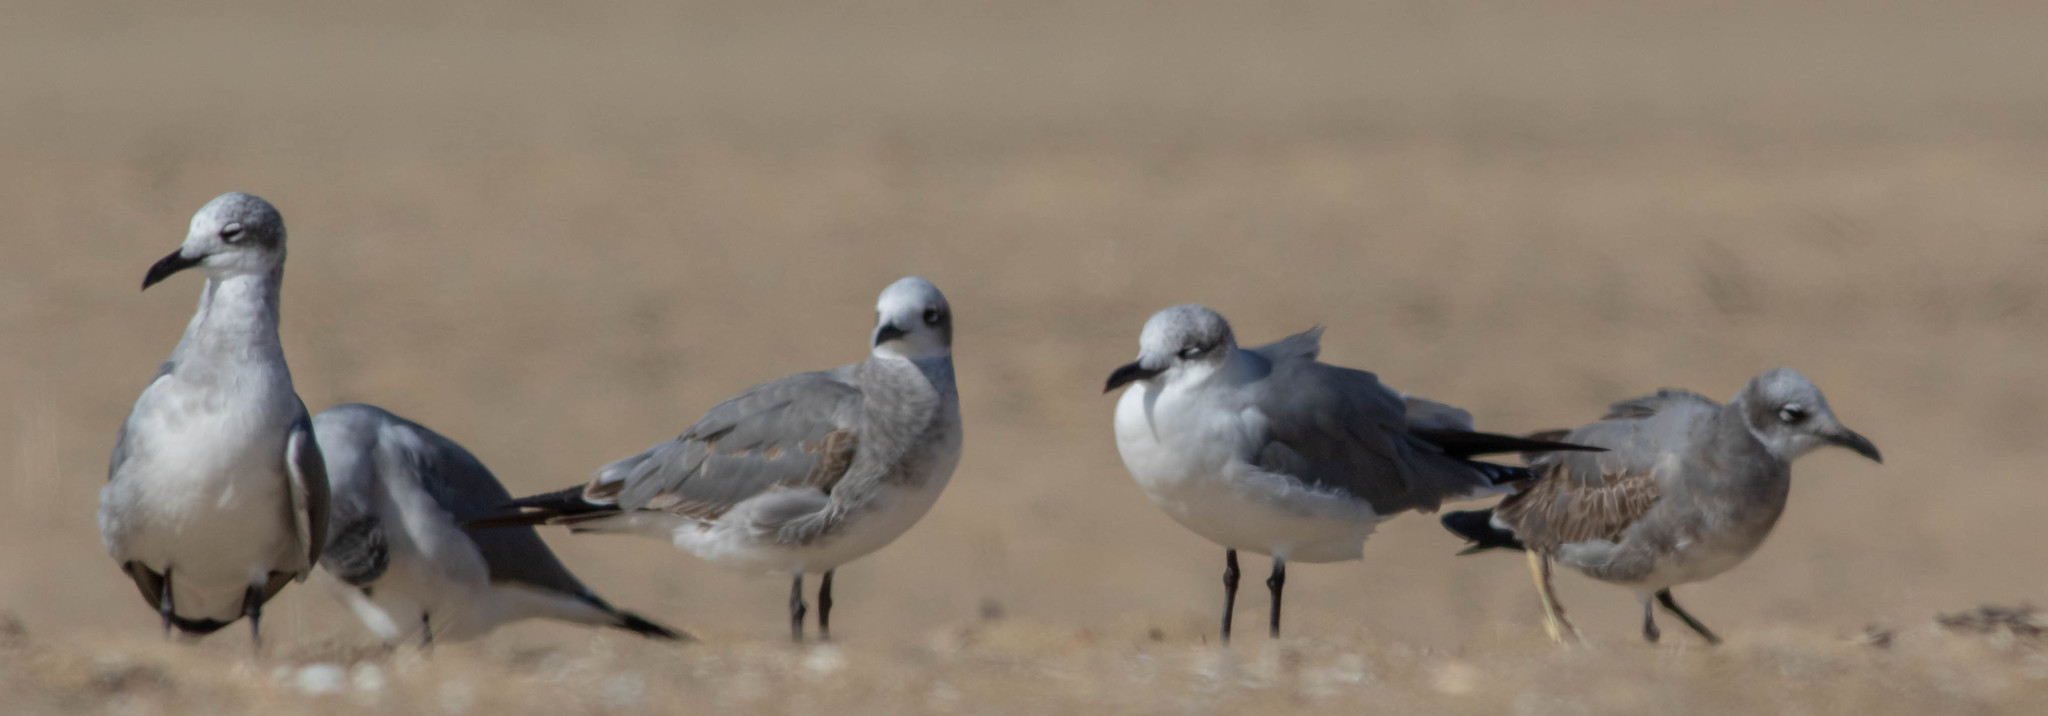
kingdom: Animalia
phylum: Chordata
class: Aves
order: Charadriiformes
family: Laridae
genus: Leucophaeus
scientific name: Leucophaeus atricilla
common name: Laughing gull
